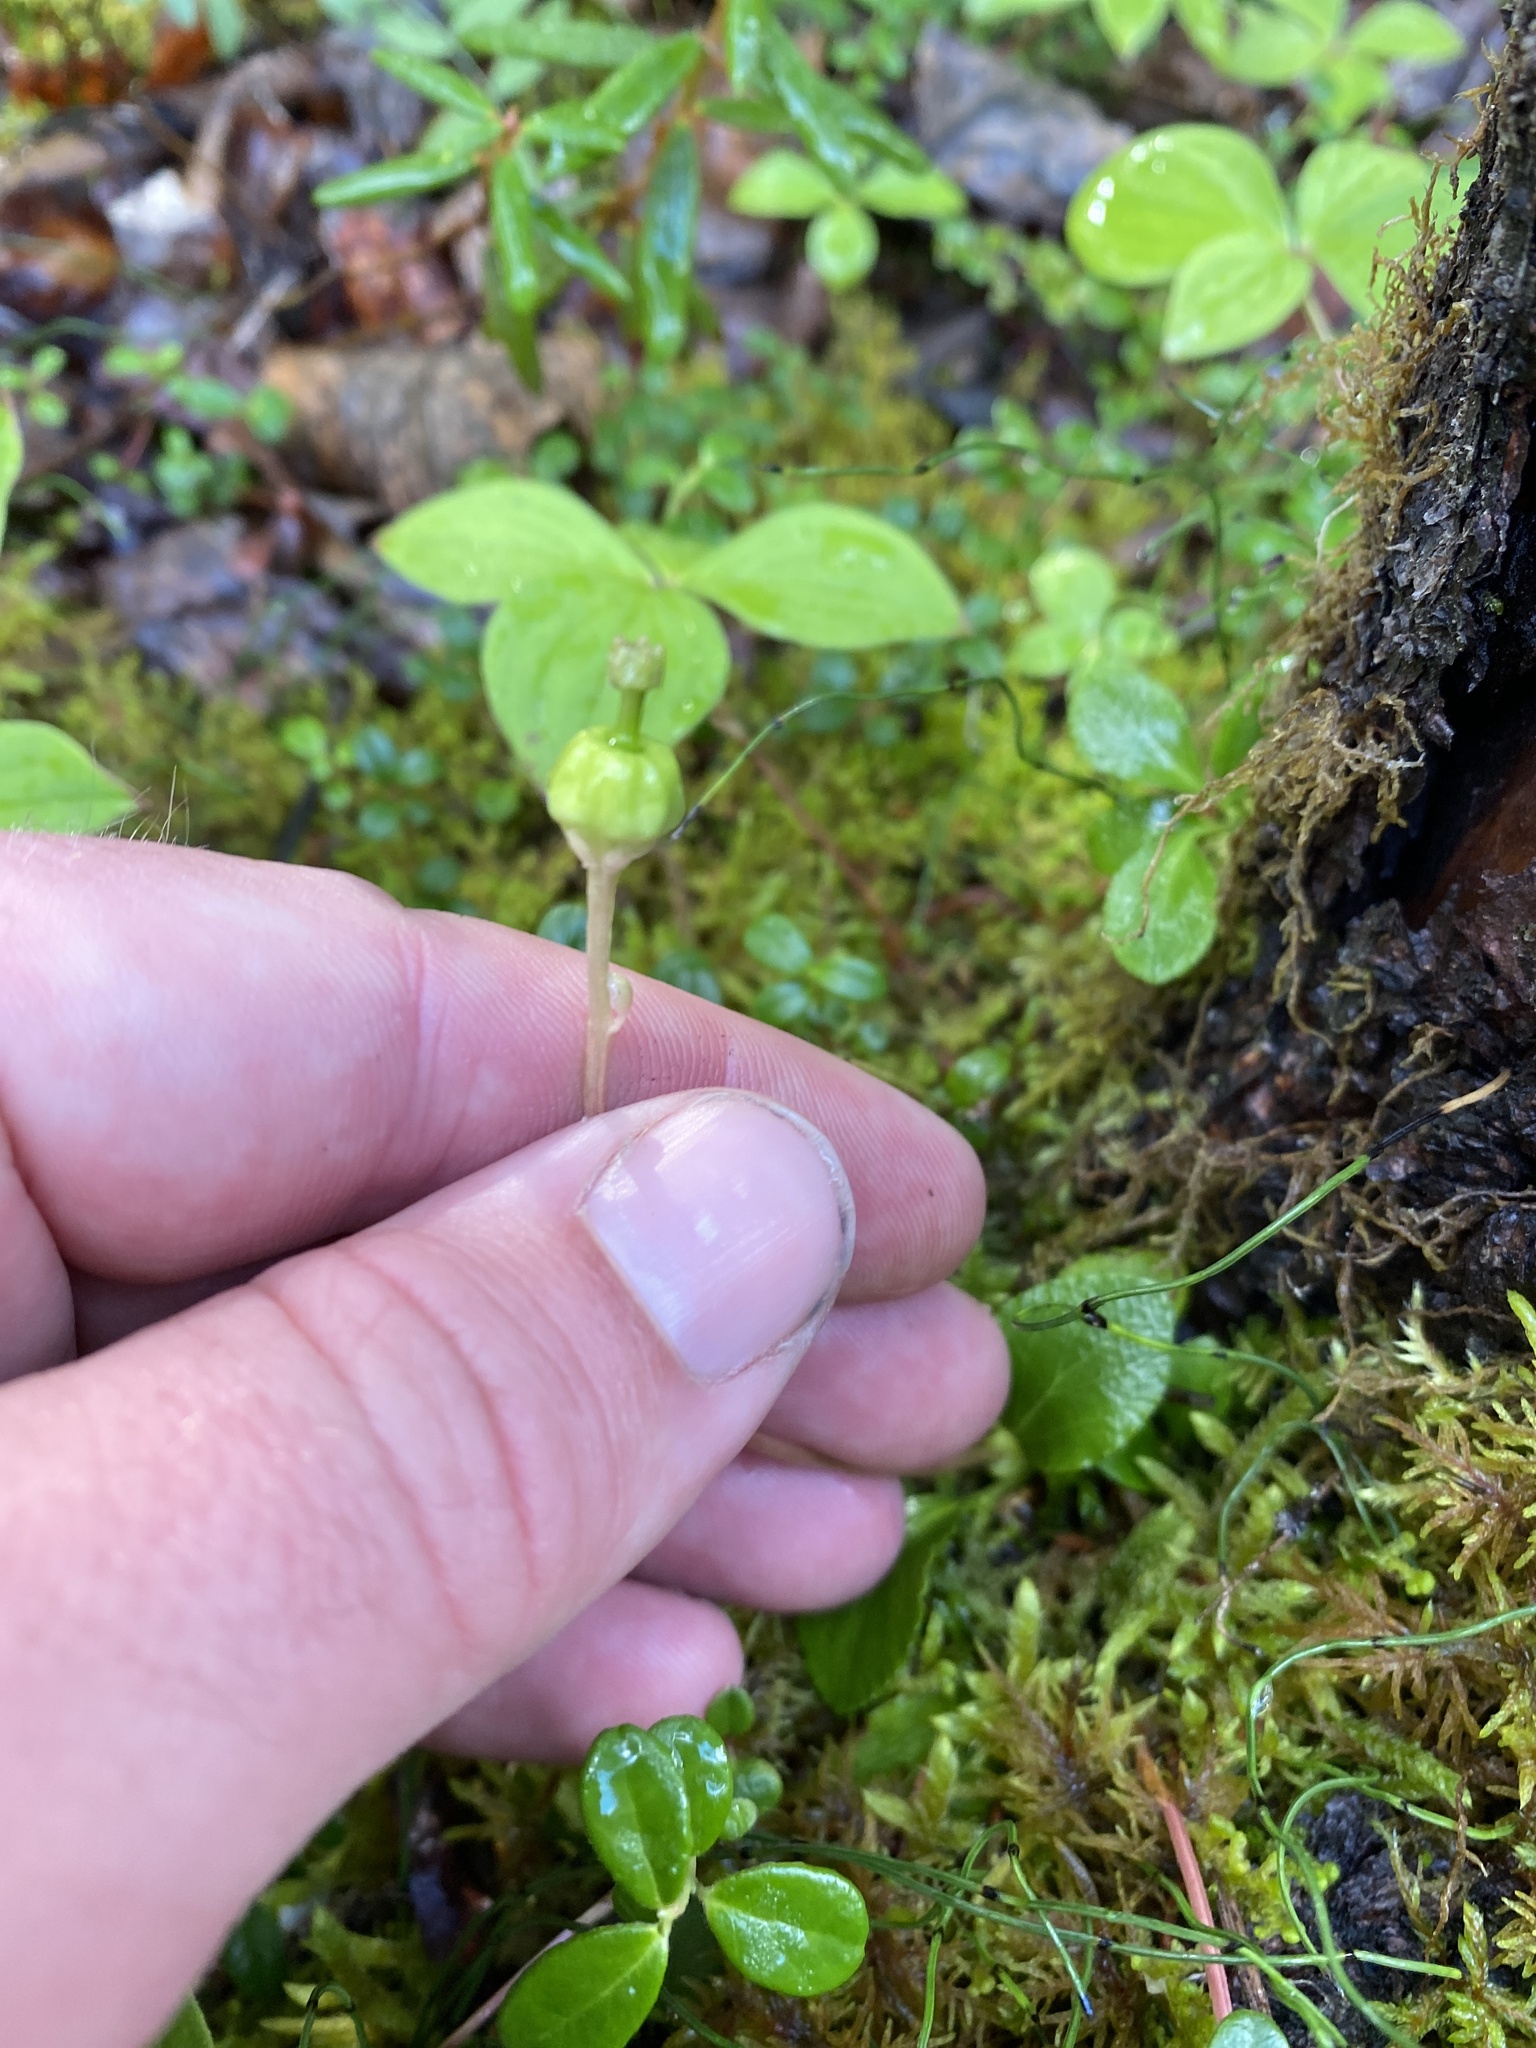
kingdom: Plantae
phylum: Tracheophyta
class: Magnoliopsida
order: Ericales
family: Ericaceae
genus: Moneses
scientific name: Moneses uniflora
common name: One-flowered wintergreen
